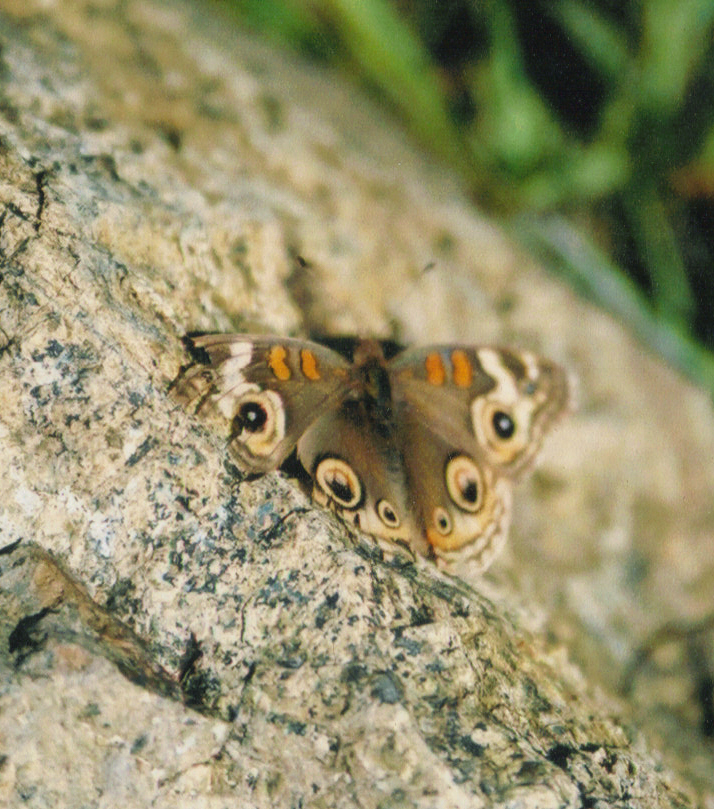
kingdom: Animalia
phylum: Arthropoda
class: Insecta
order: Lepidoptera
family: Nymphalidae
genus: Junonia
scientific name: Junonia grisea
